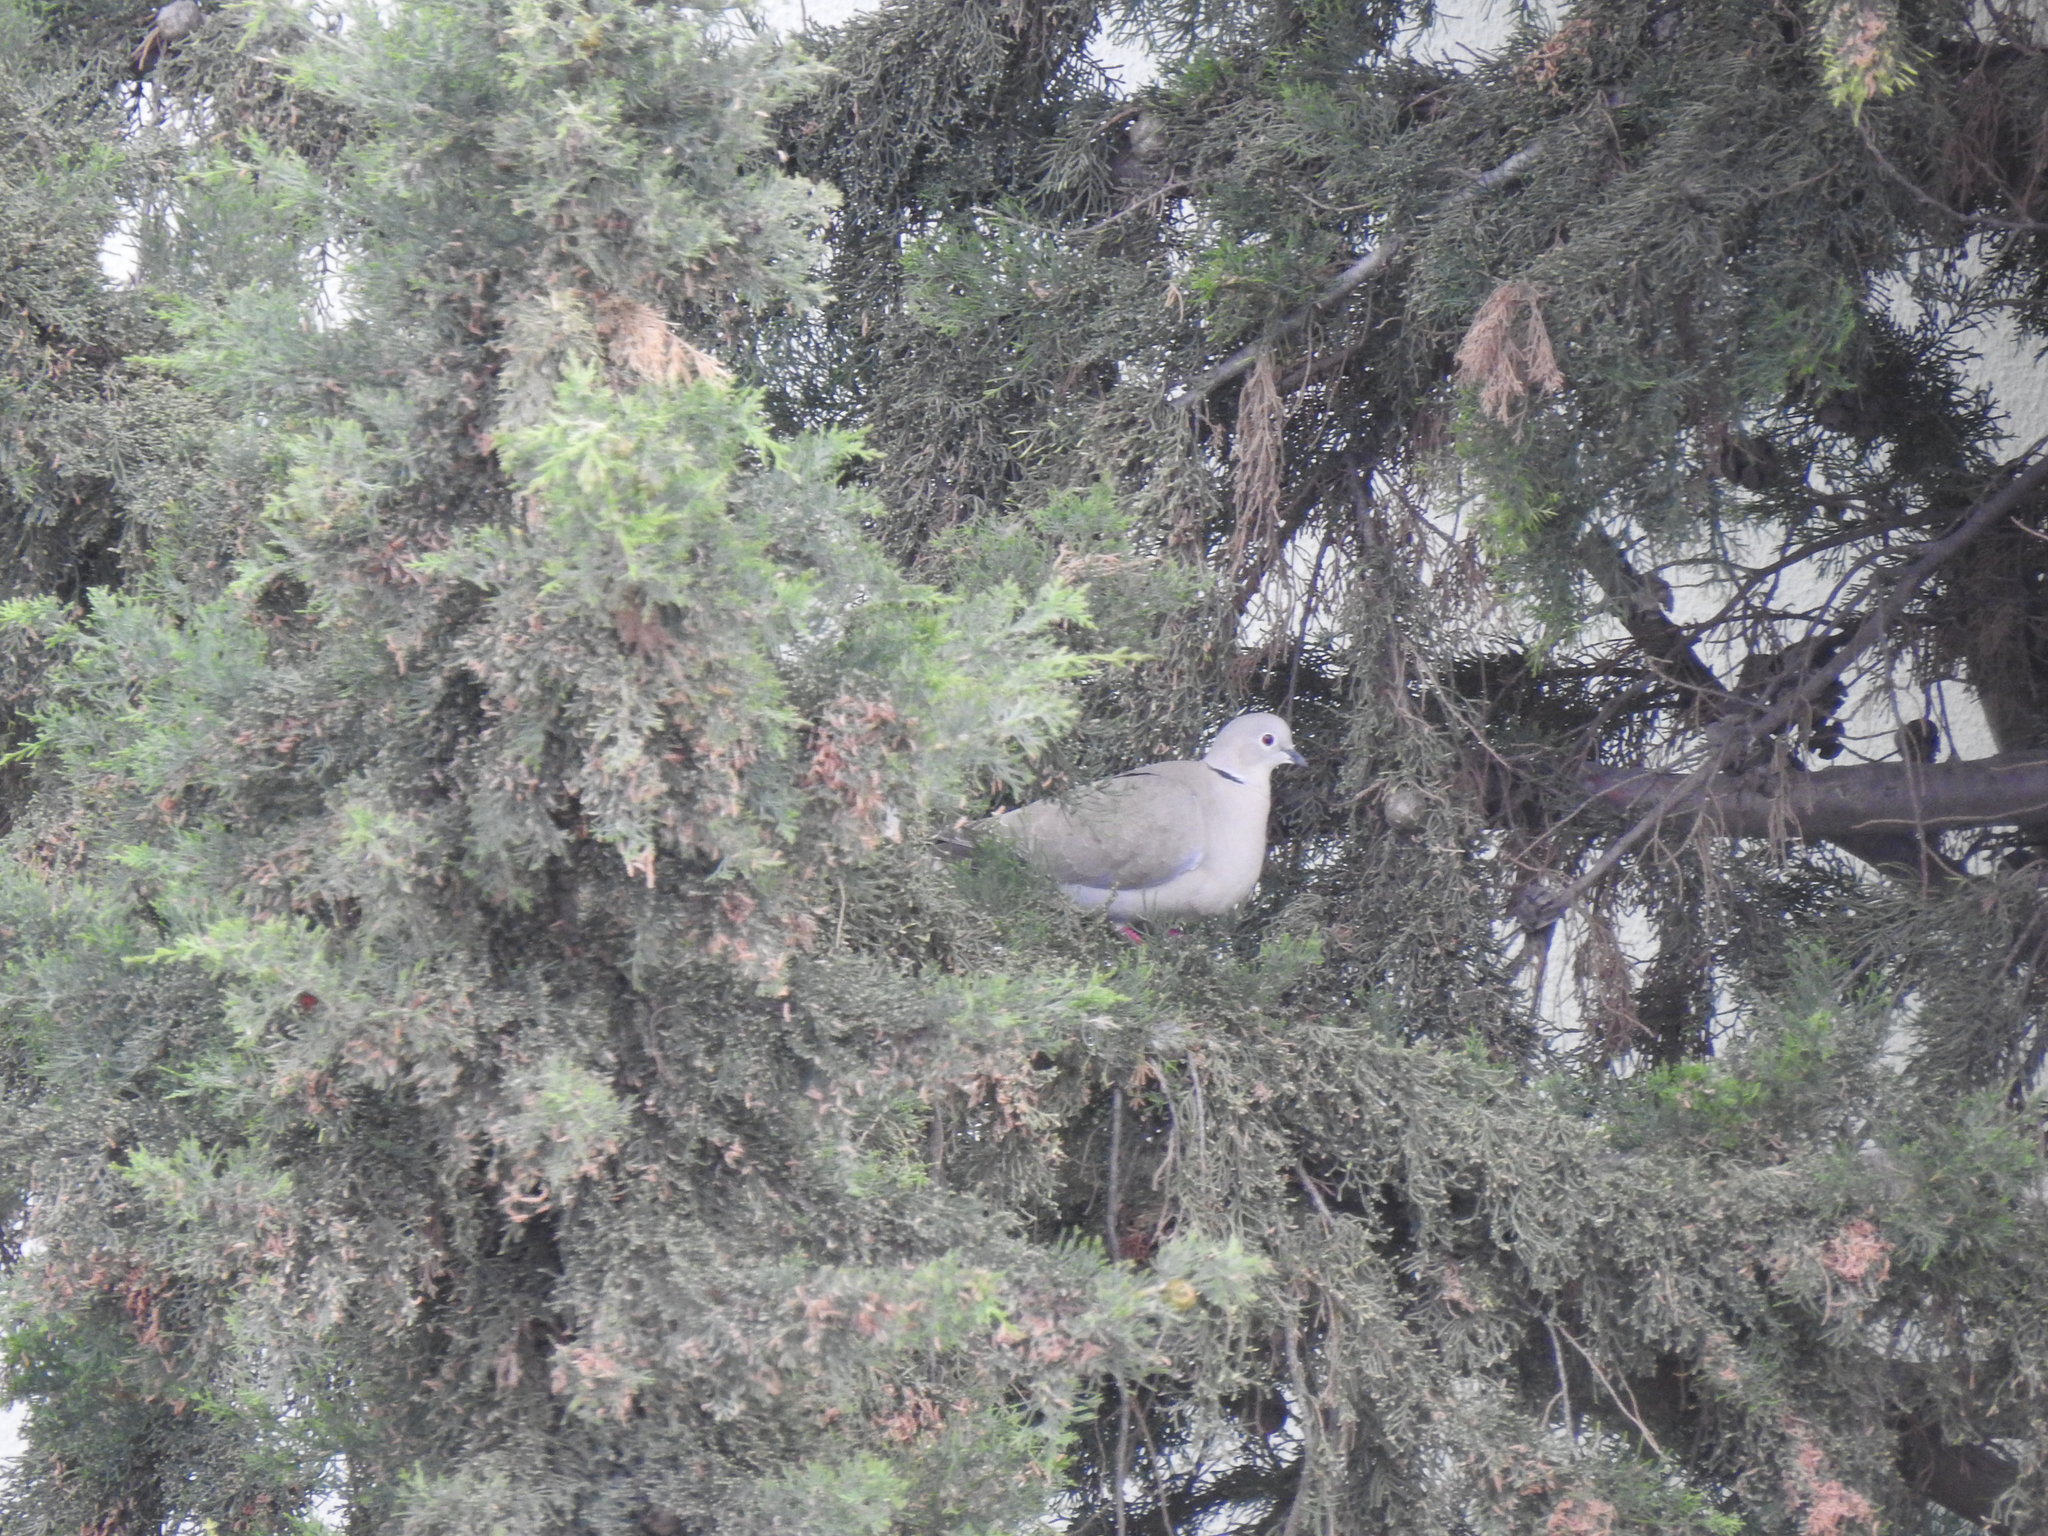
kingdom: Animalia
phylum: Chordata
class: Aves
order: Columbiformes
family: Columbidae
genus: Streptopelia
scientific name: Streptopelia decaocto
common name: Eurasian collared dove
